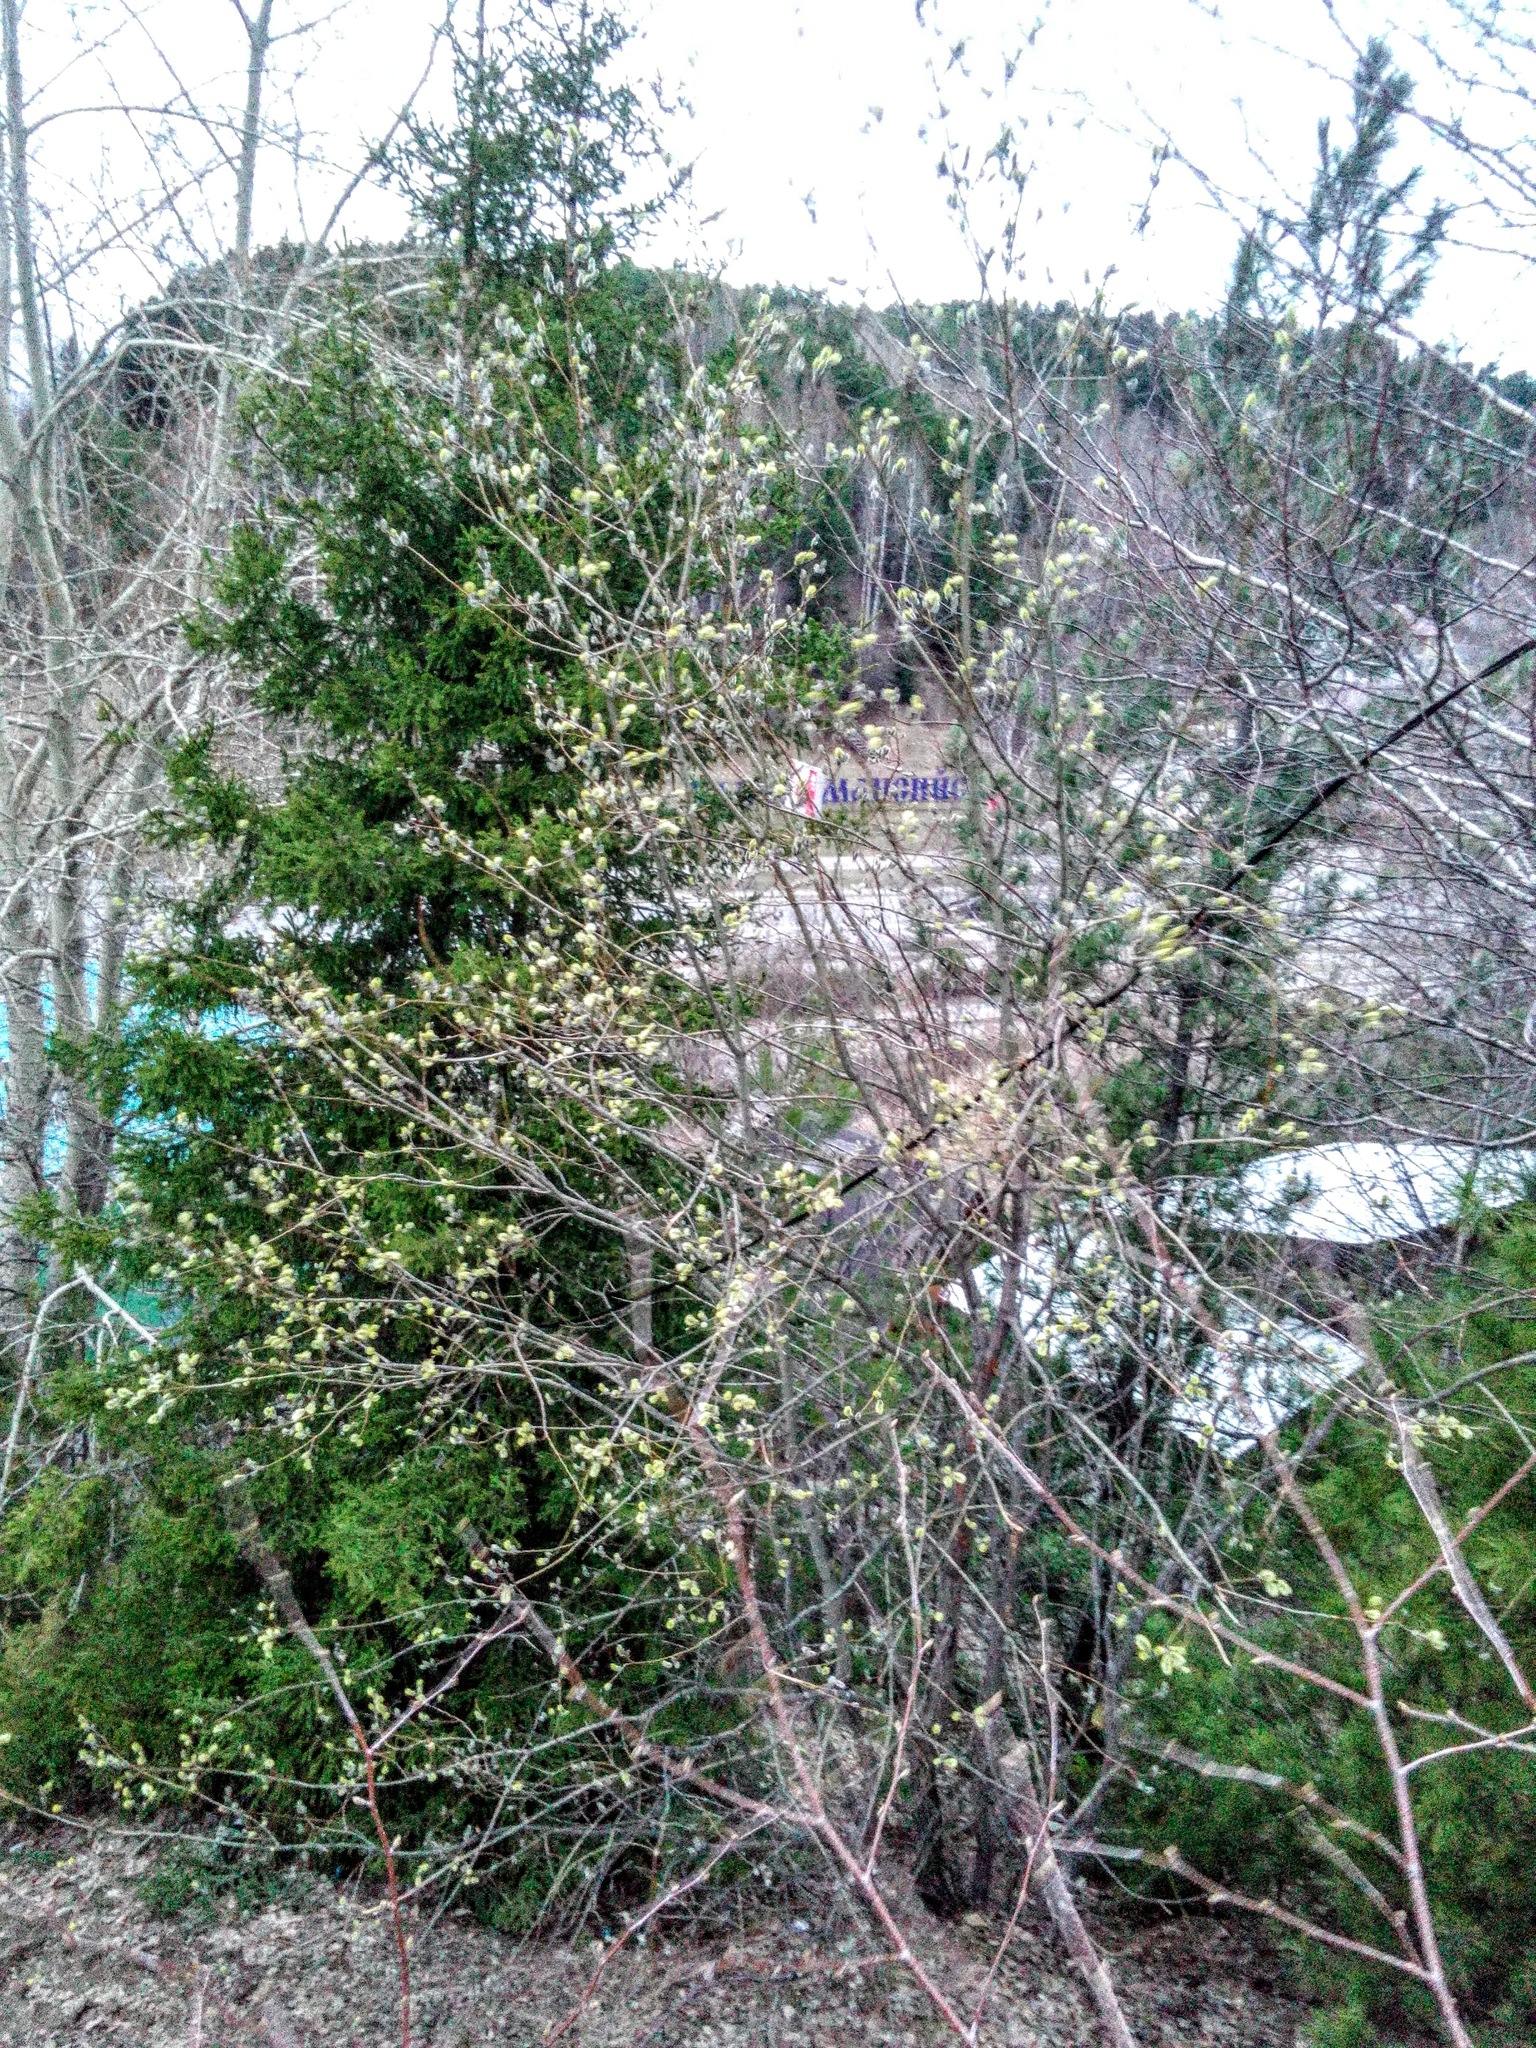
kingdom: Plantae
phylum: Tracheophyta
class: Magnoliopsida
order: Malpighiales
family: Salicaceae
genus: Salix
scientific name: Salix caprea
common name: Goat willow
